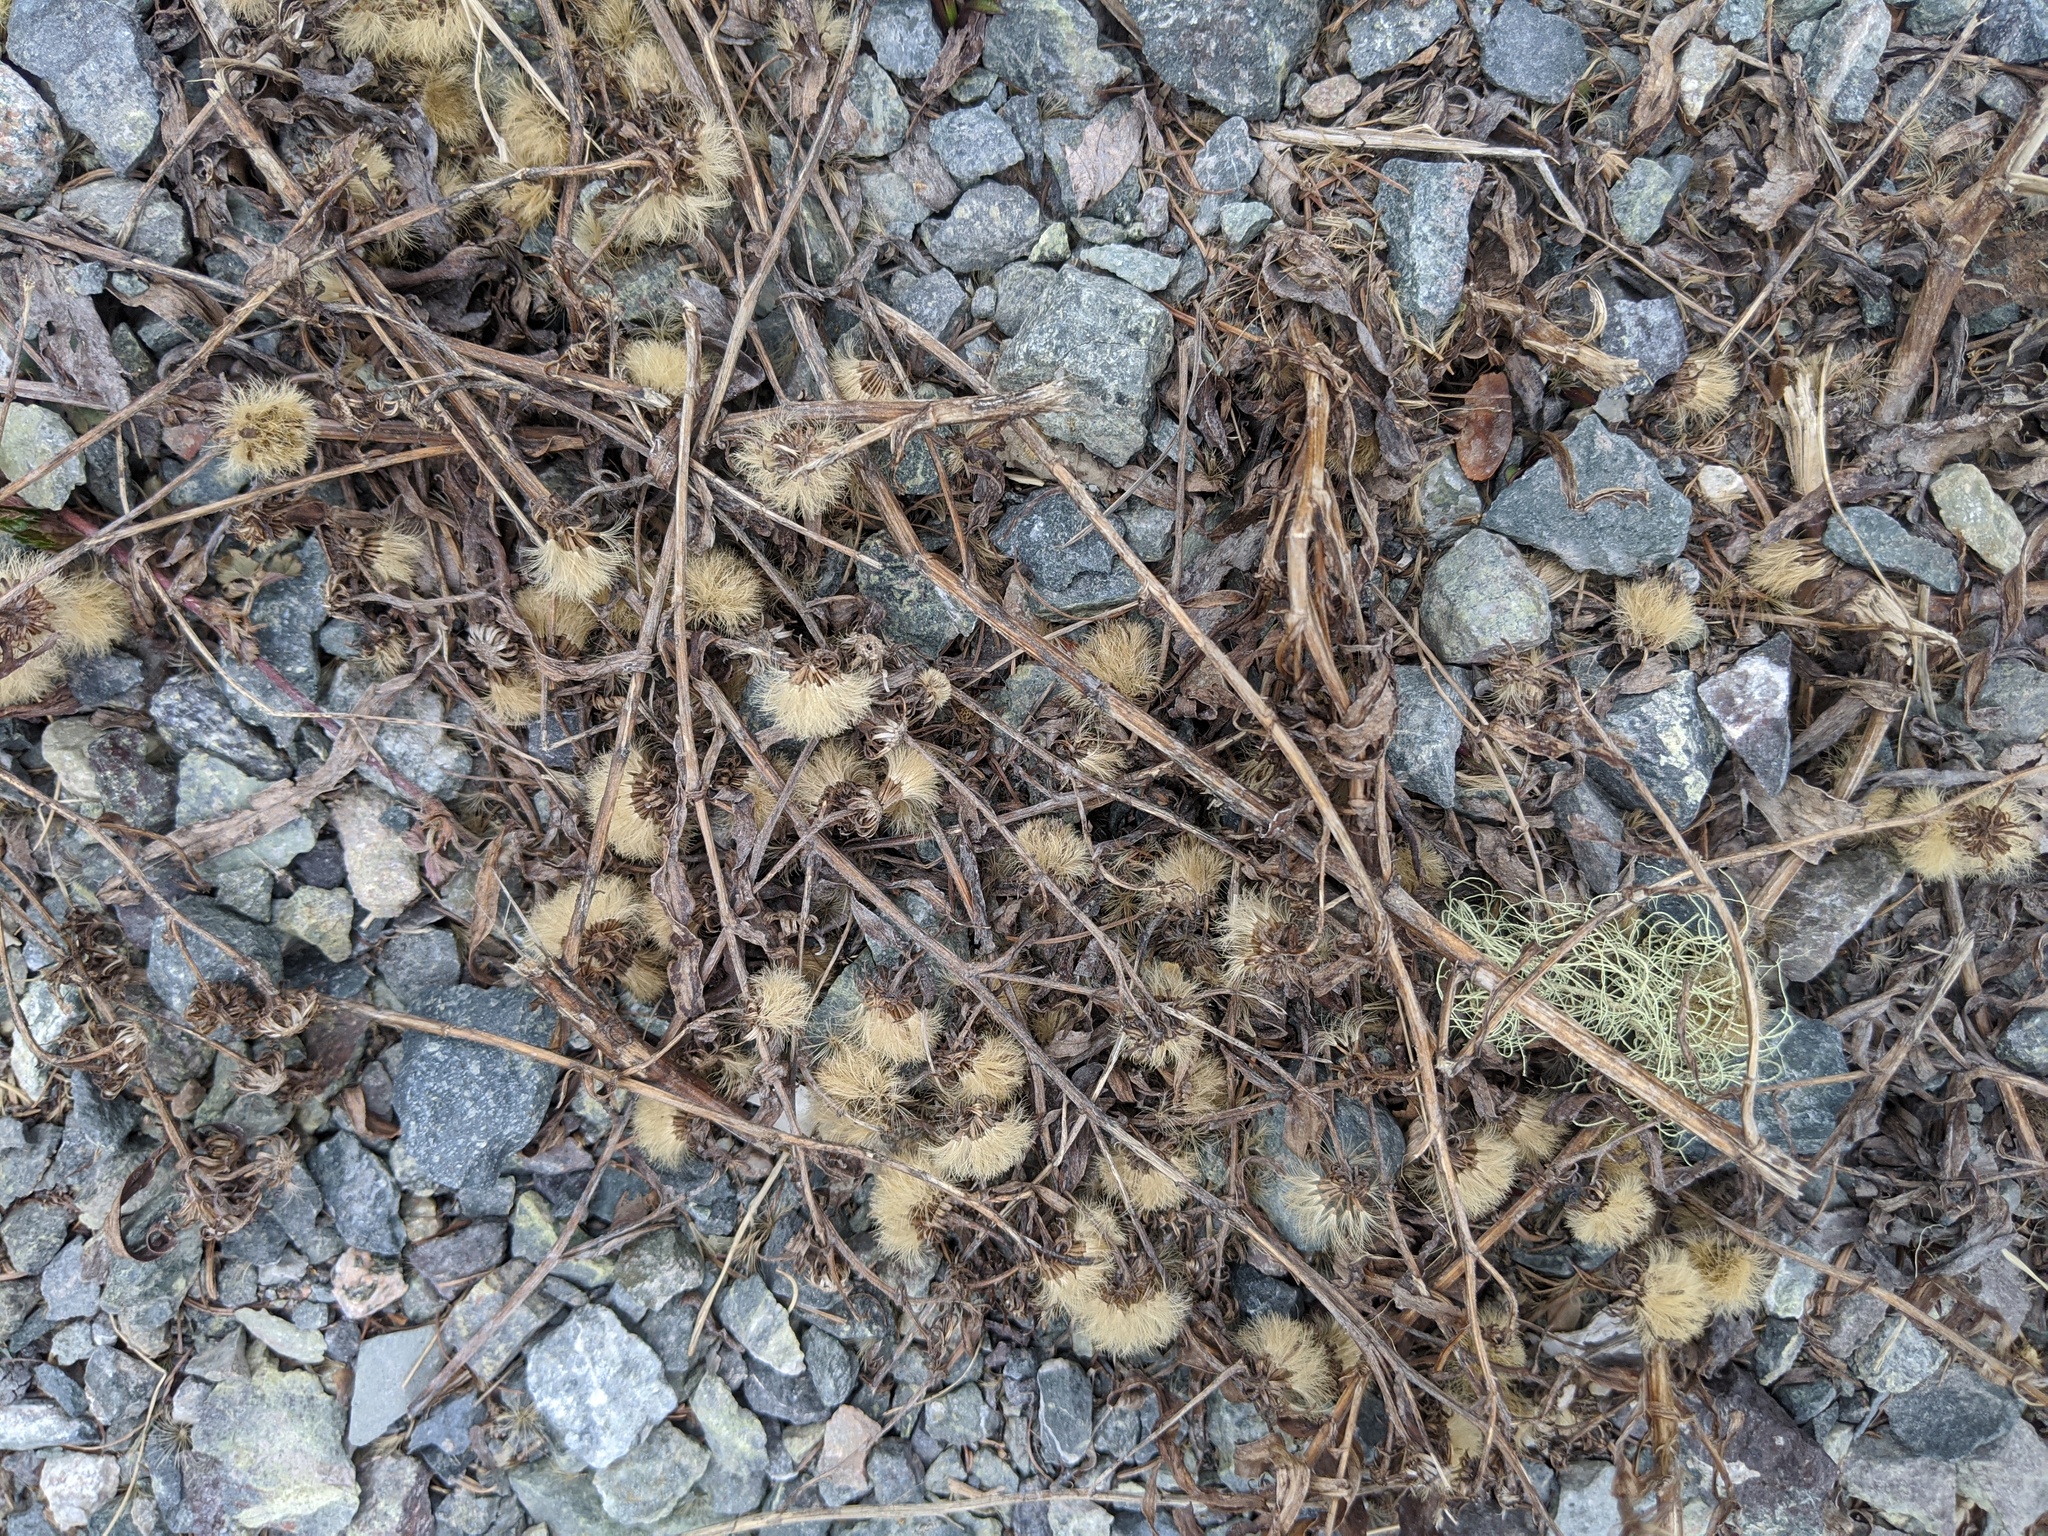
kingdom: Plantae
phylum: Tracheophyta
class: Magnoliopsida
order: Asterales
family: Asteraceae
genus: Symphyotrichum
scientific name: Symphyotrichum novi-belgii
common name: Michaelmas daisy
